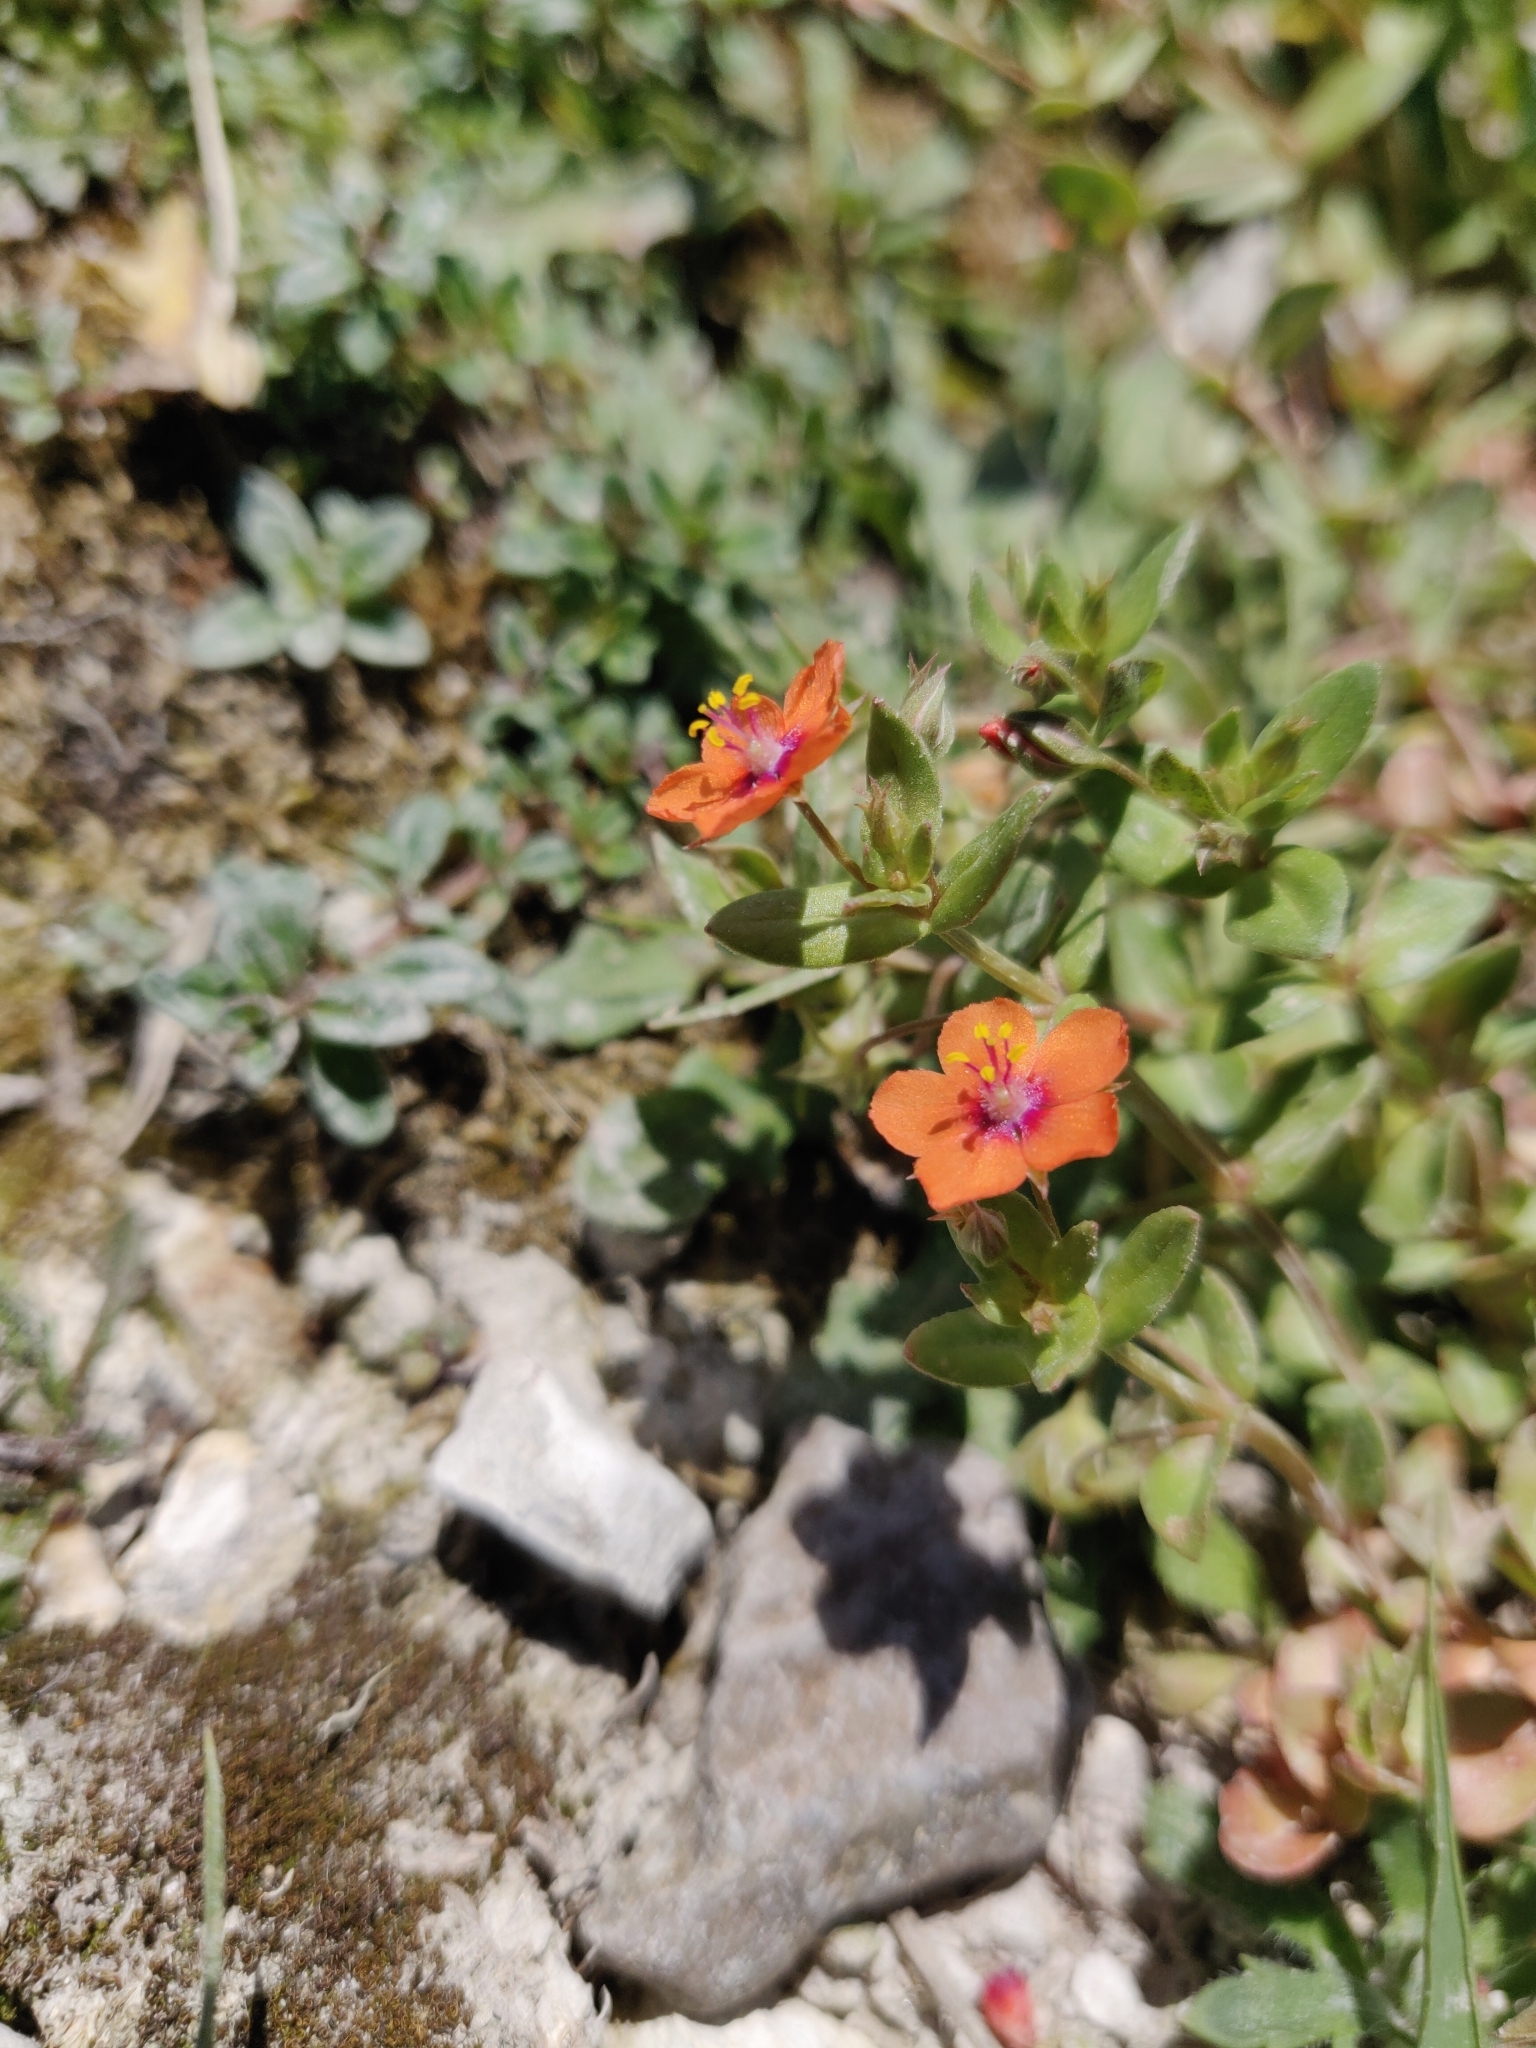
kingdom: Plantae
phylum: Tracheophyta
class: Magnoliopsida
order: Ericales
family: Primulaceae
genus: Lysimachia
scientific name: Lysimachia arvensis
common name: Scarlet pimpernel
